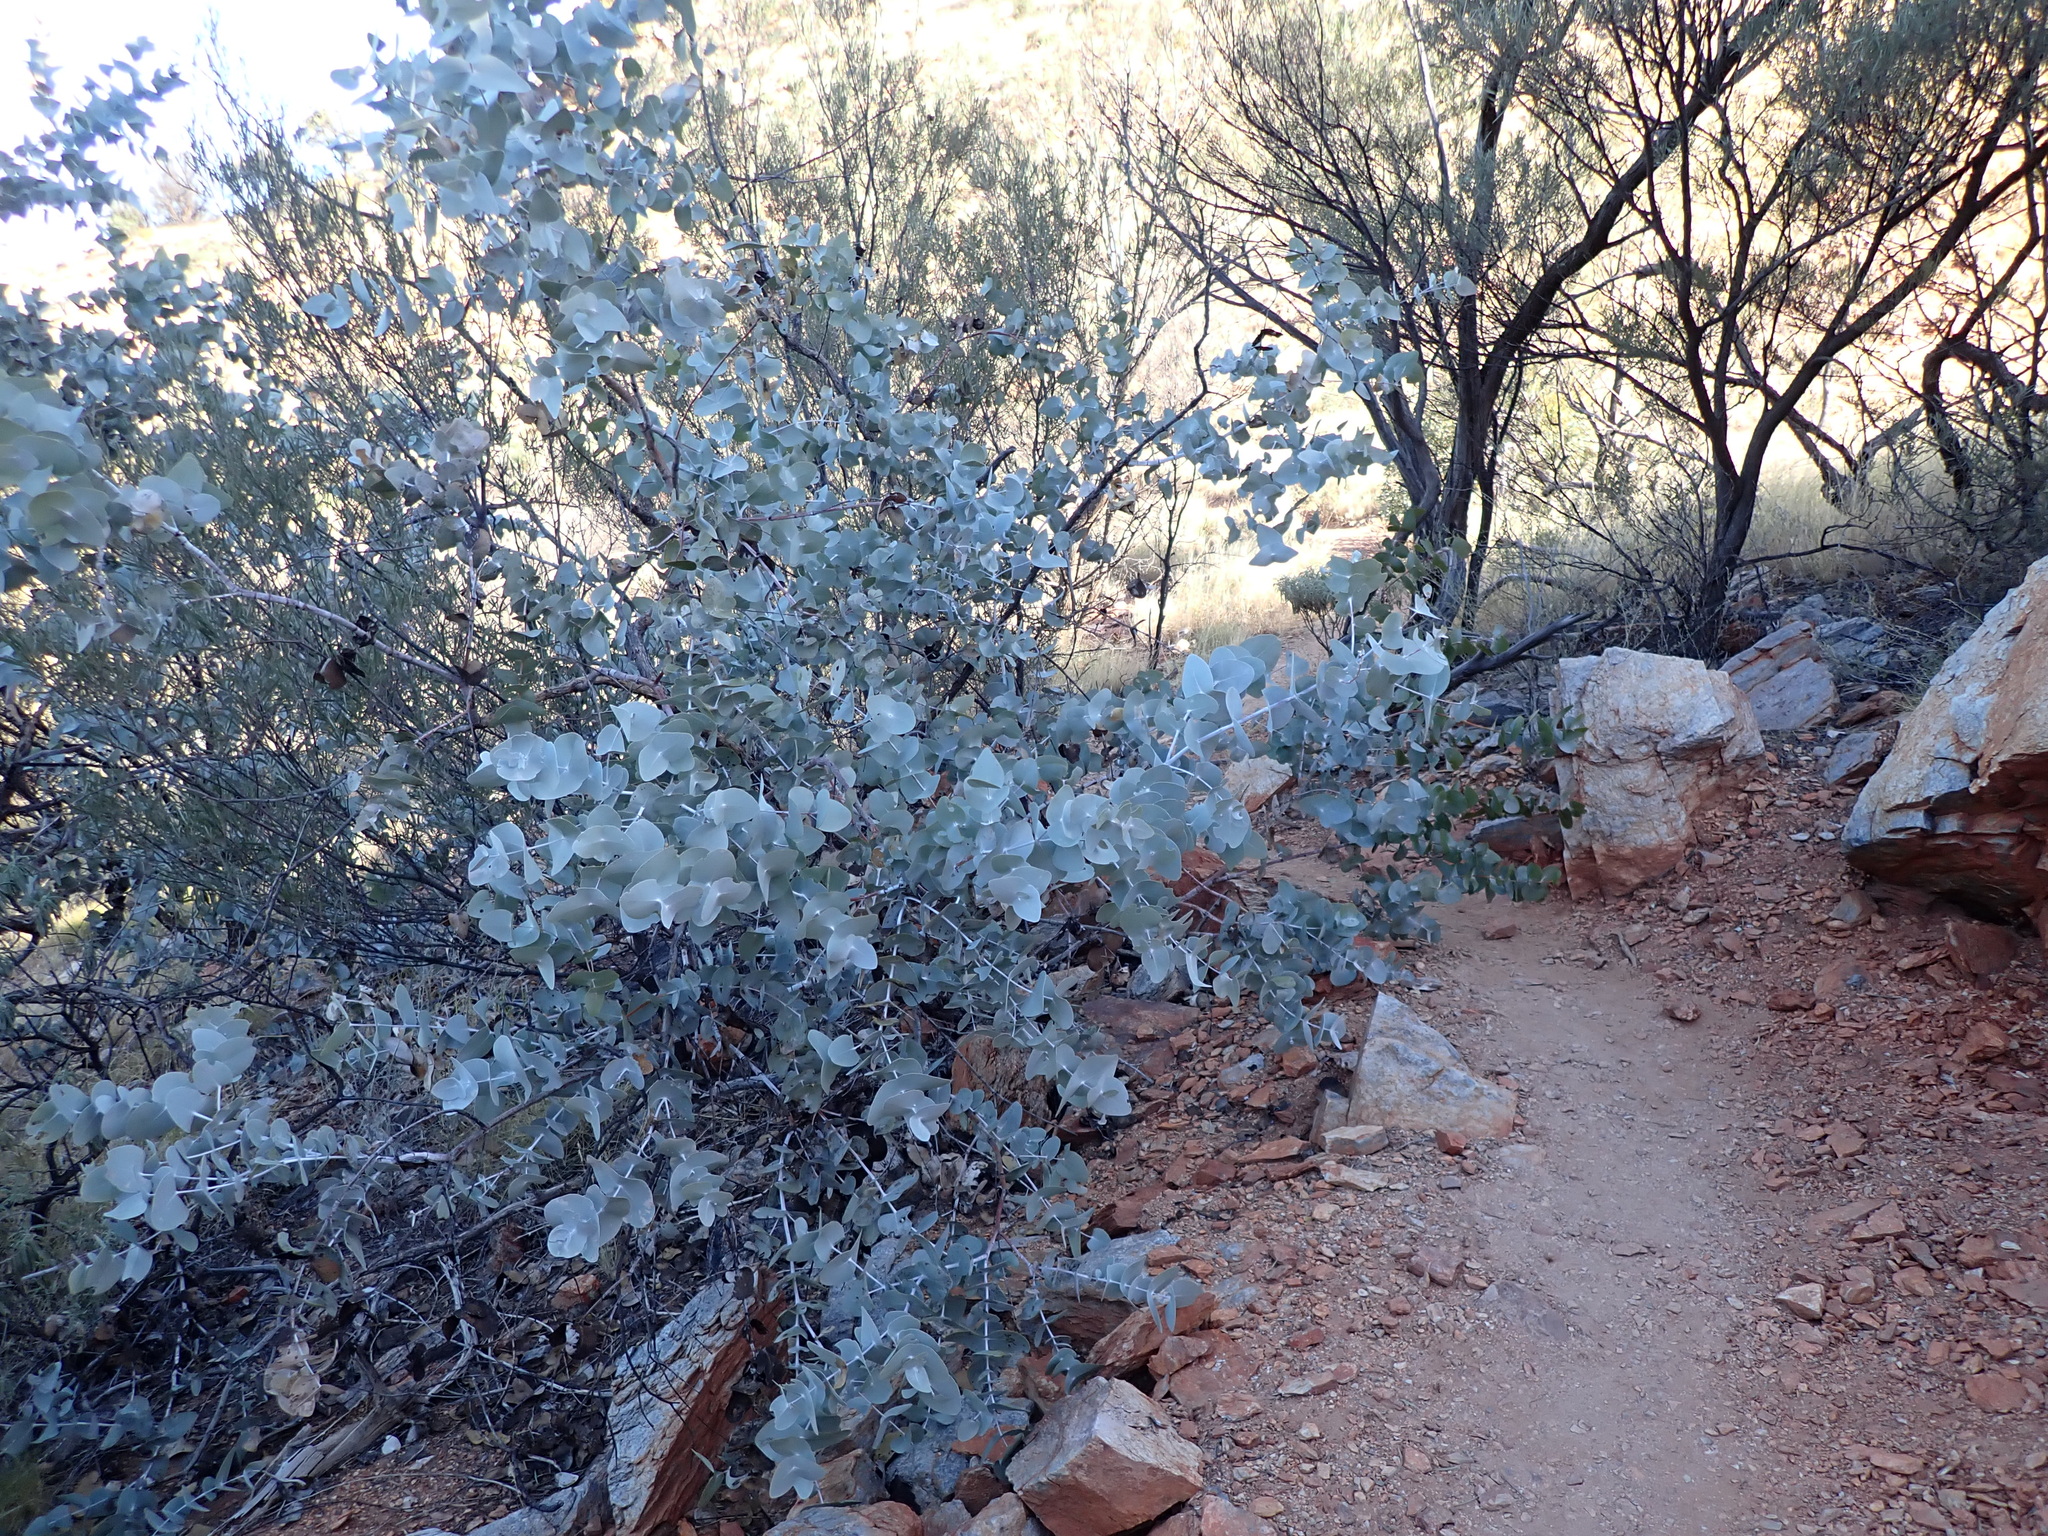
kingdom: Plantae
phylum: Tracheophyta
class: Magnoliopsida
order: Myrtales
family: Myrtaceae
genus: Eucalyptus
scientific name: Eucalyptus gamophylla
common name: Blue mallee
